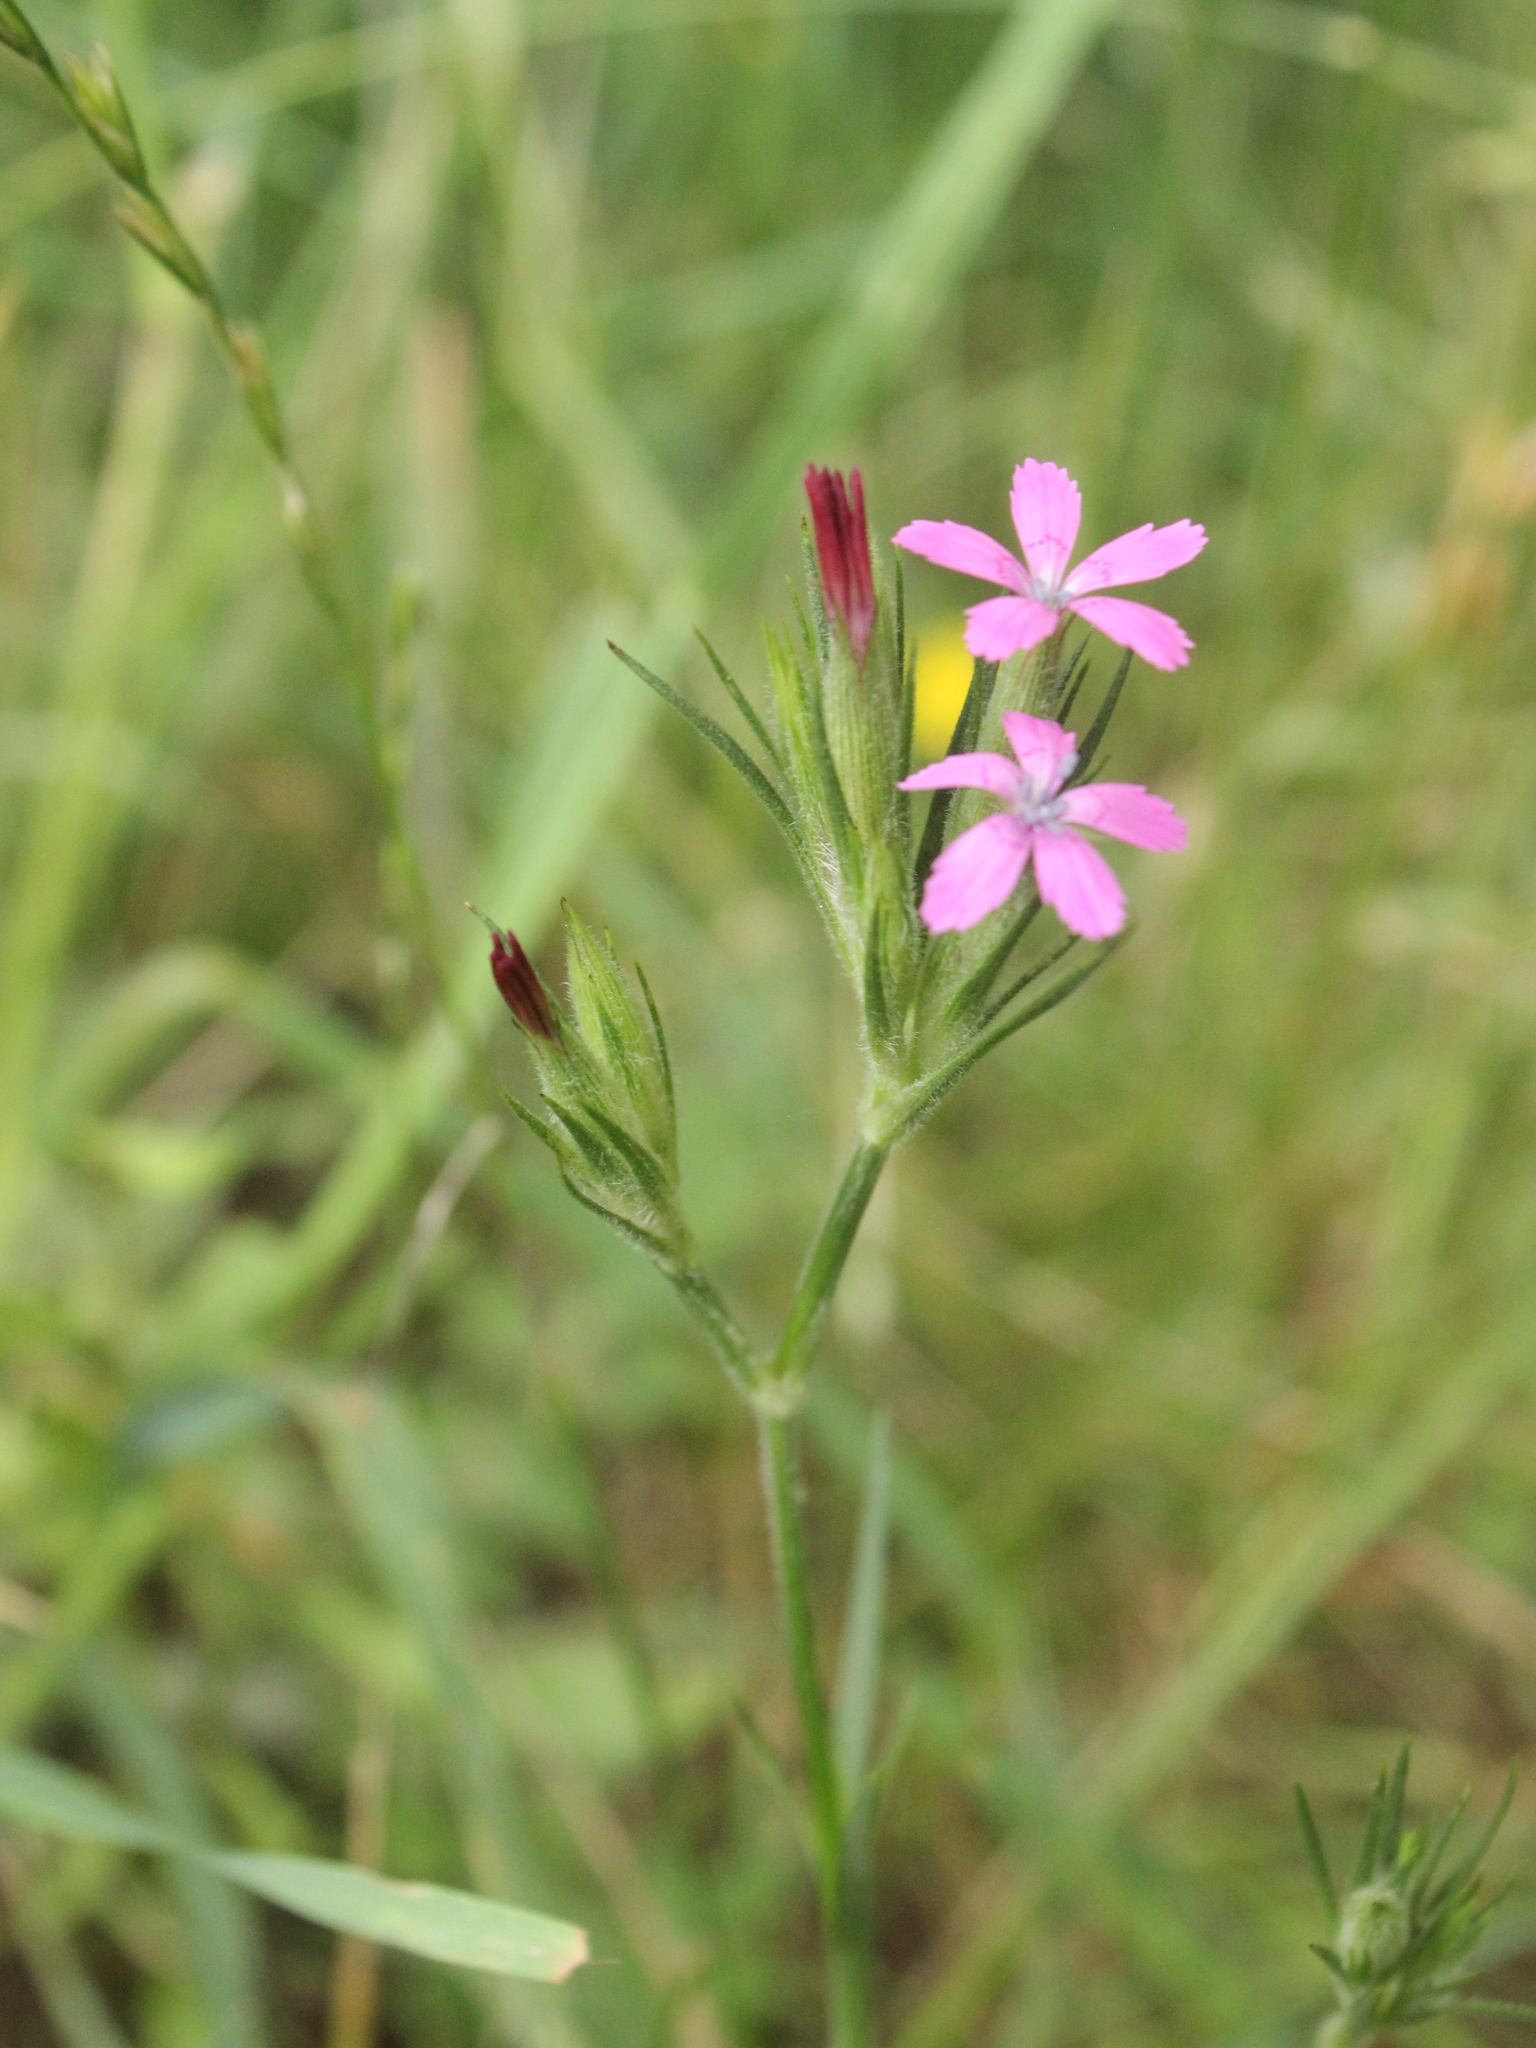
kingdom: Plantae
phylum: Tracheophyta
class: Magnoliopsida
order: Caryophyllales
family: Caryophyllaceae
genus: Dianthus
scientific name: Dianthus armeria
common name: Deptford pink
